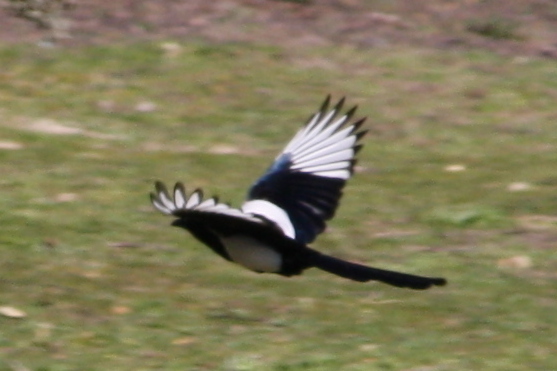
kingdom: Animalia
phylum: Chordata
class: Aves
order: Passeriformes
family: Corvidae
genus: Pica
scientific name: Pica pica
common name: Eurasian magpie
